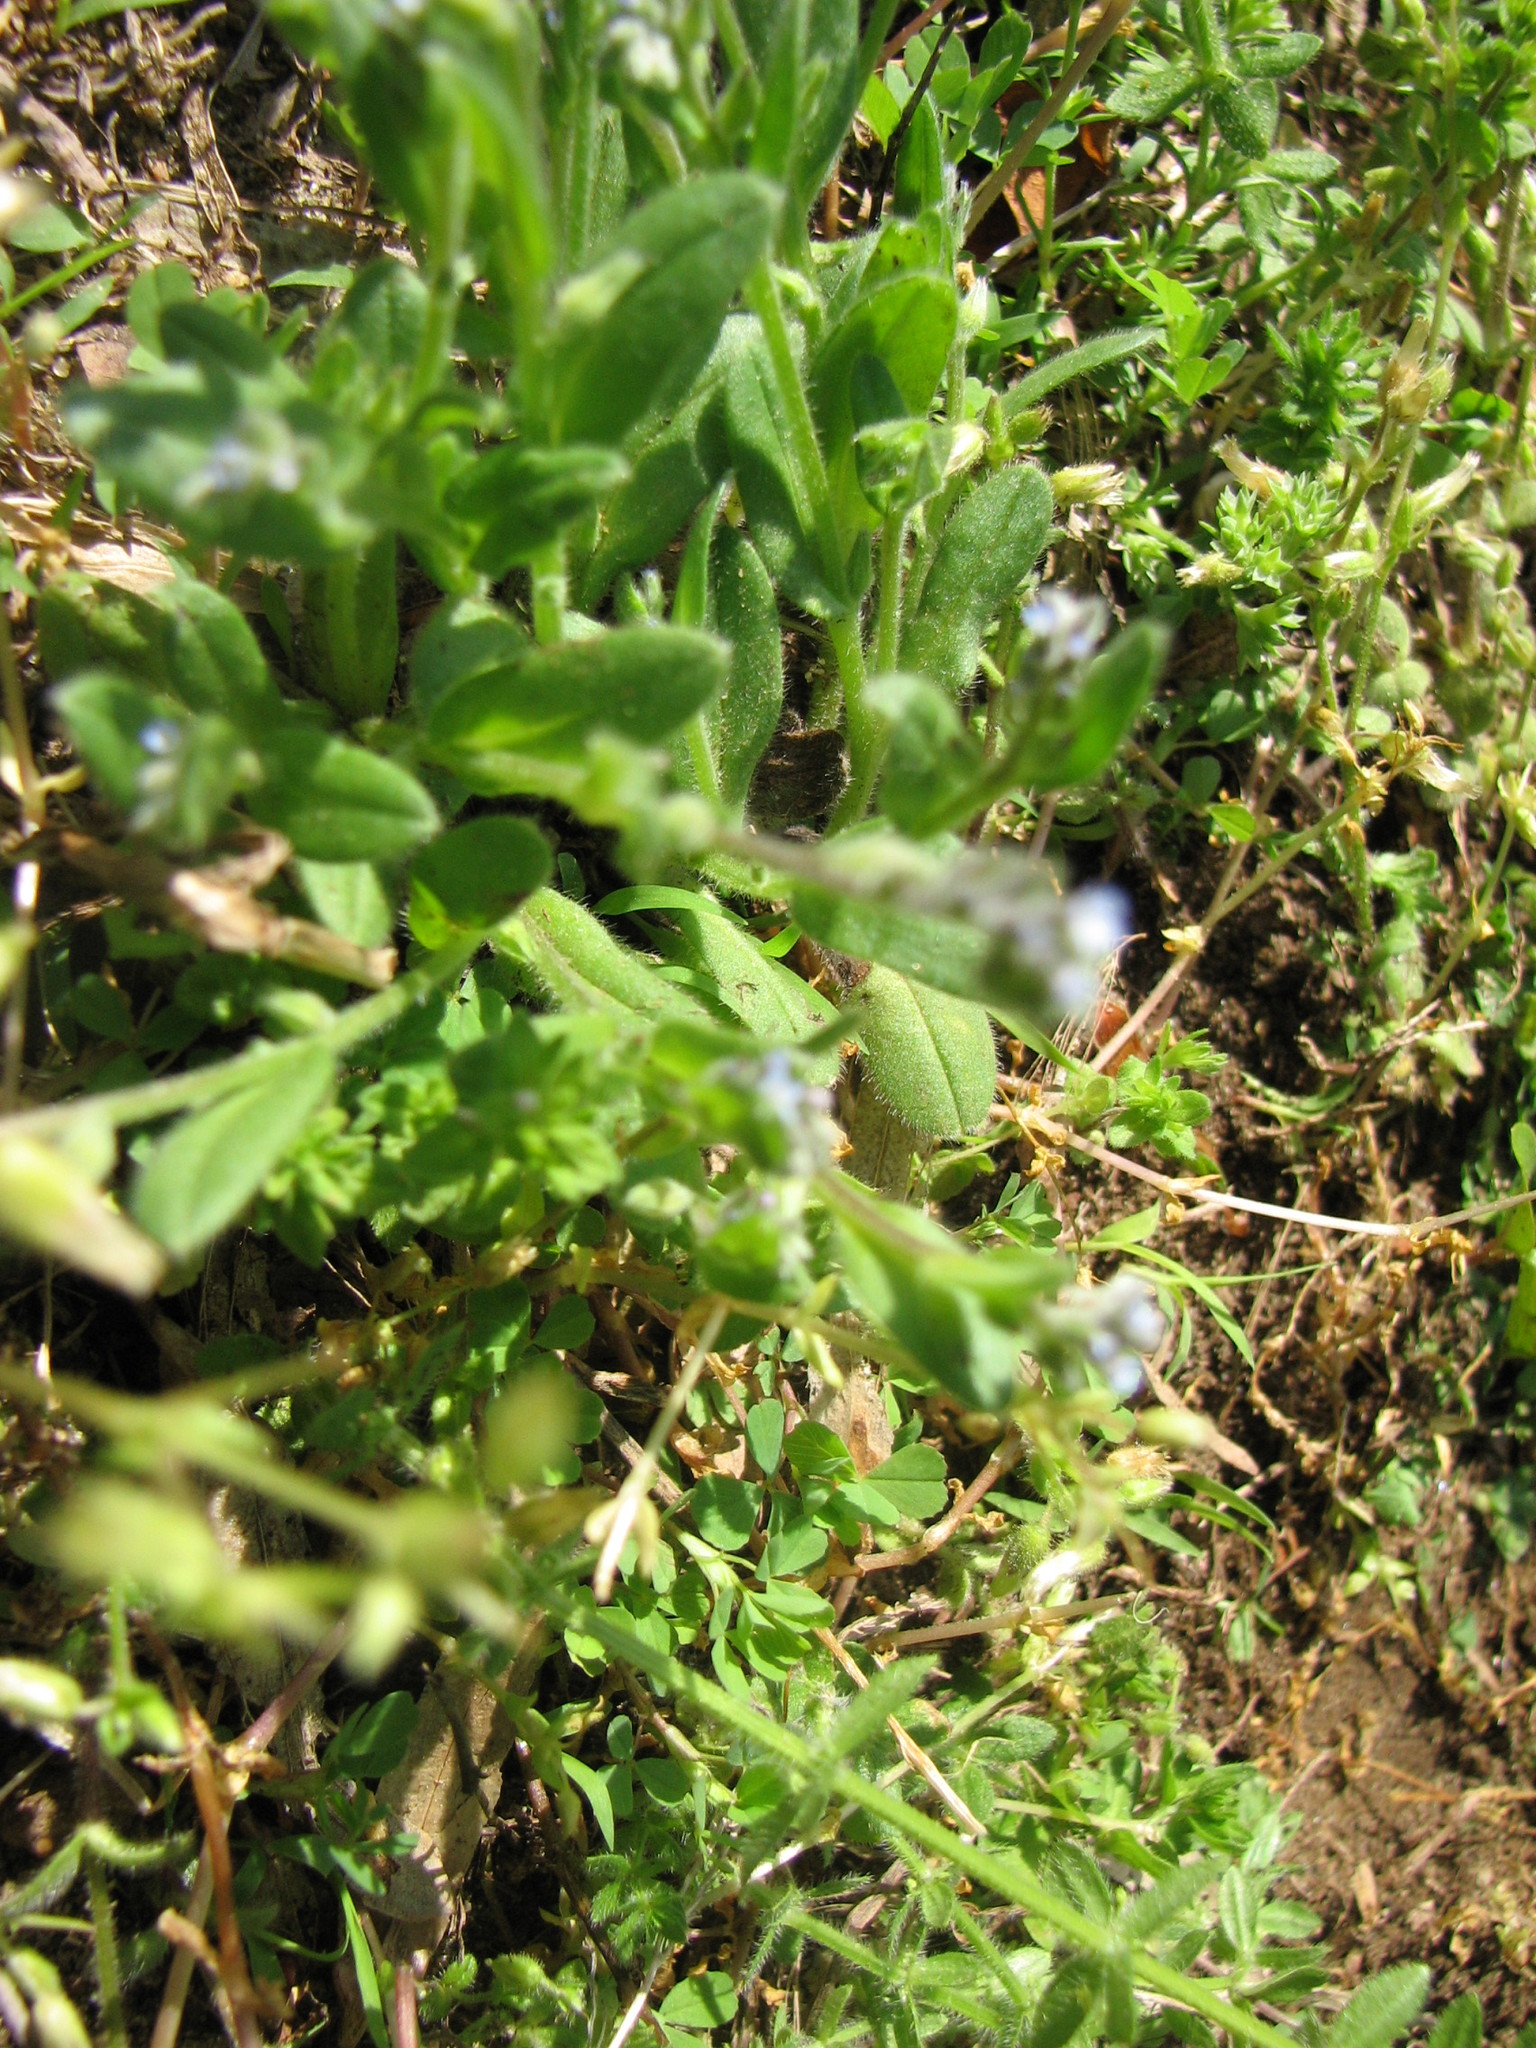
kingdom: Plantae
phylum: Tracheophyta
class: Magnoliopsida
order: Boraginales
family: Boraginaceae
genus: Myosotis
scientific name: Myosotis stricta
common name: Strict forget-me-not
